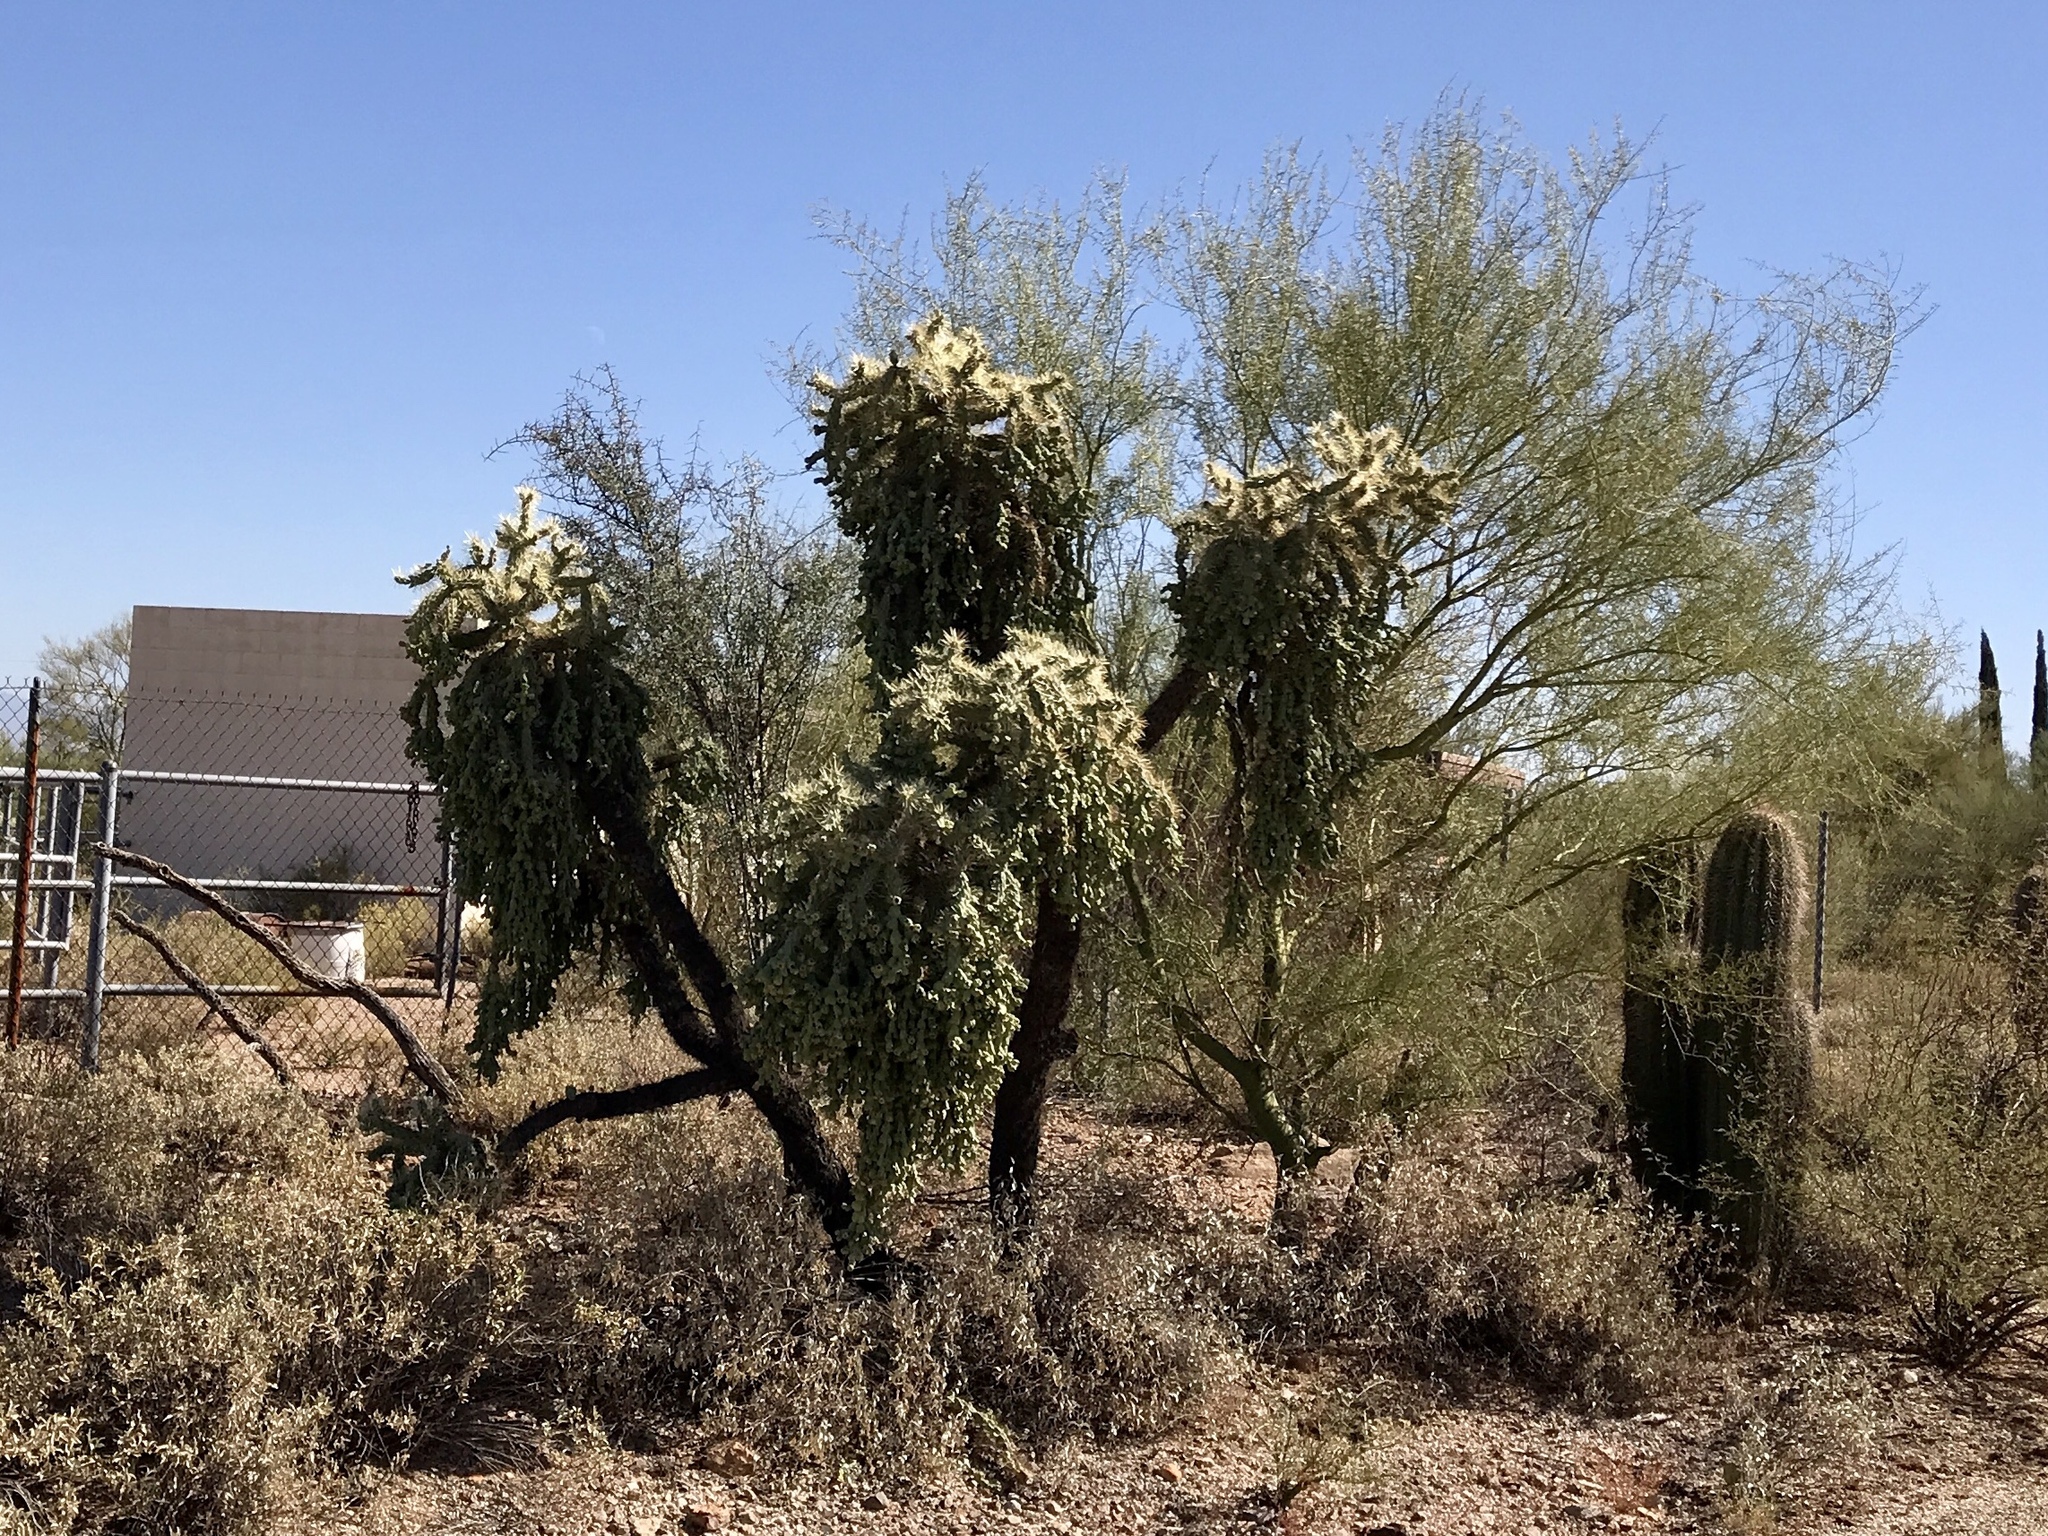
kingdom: Plantae
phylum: Tracheophyta
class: Magnoliopsida
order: Caryophyllales
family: Cactaceae
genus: Cylindropuntia
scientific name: Cylindropuntia fulgida
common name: Jumping cholla
